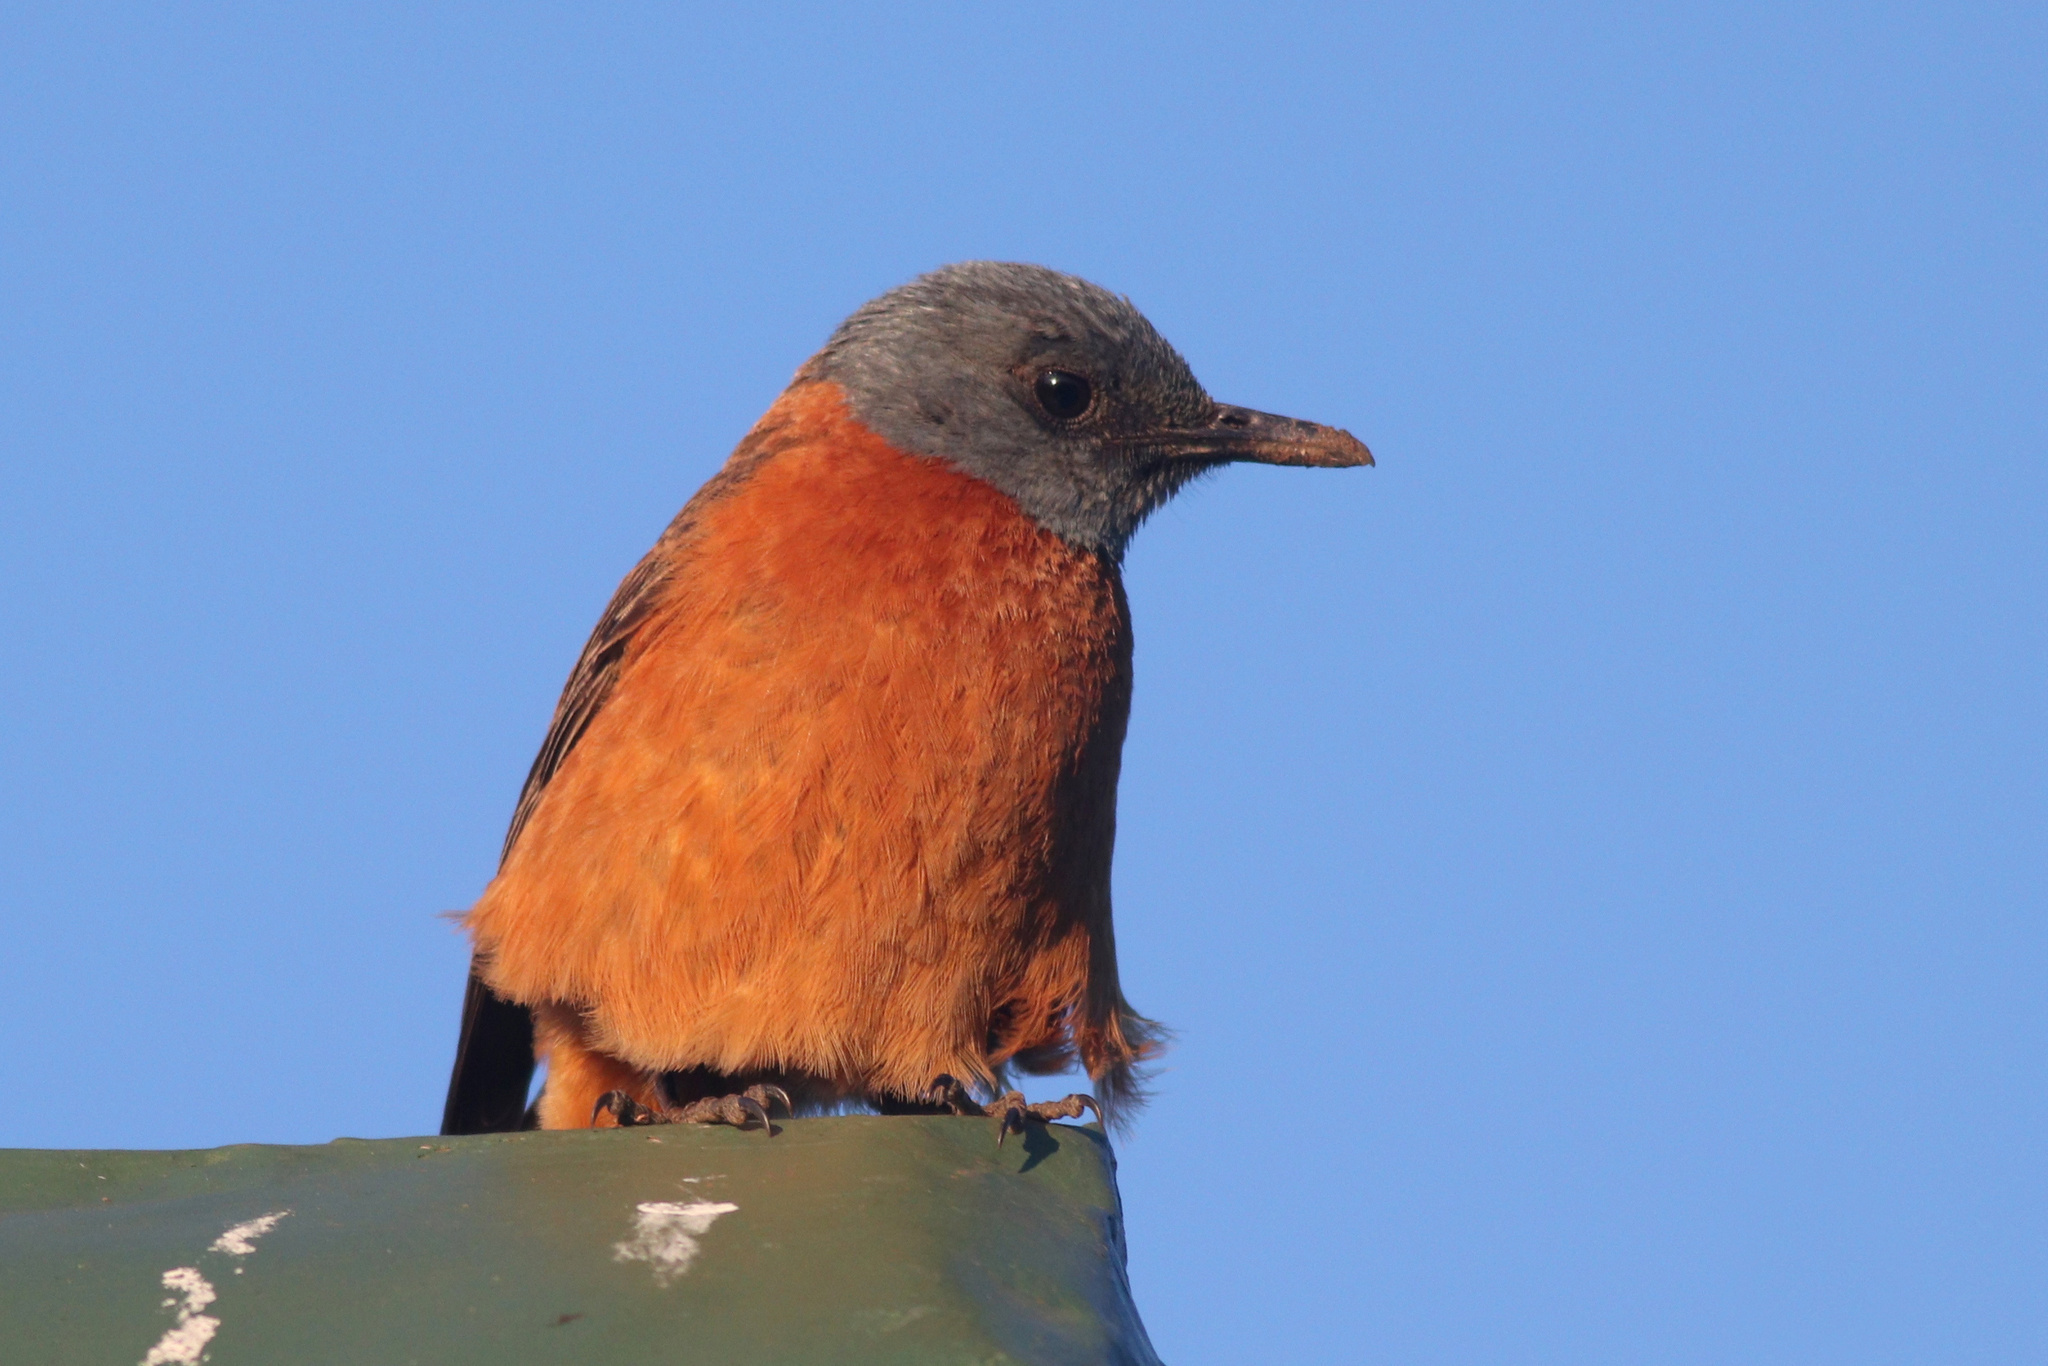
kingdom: Animalia
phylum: Chordata
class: Aves
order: Passeriformes
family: Muscicapidae
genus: Monticola
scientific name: Monticola rupestris
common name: Cape rock thrush
